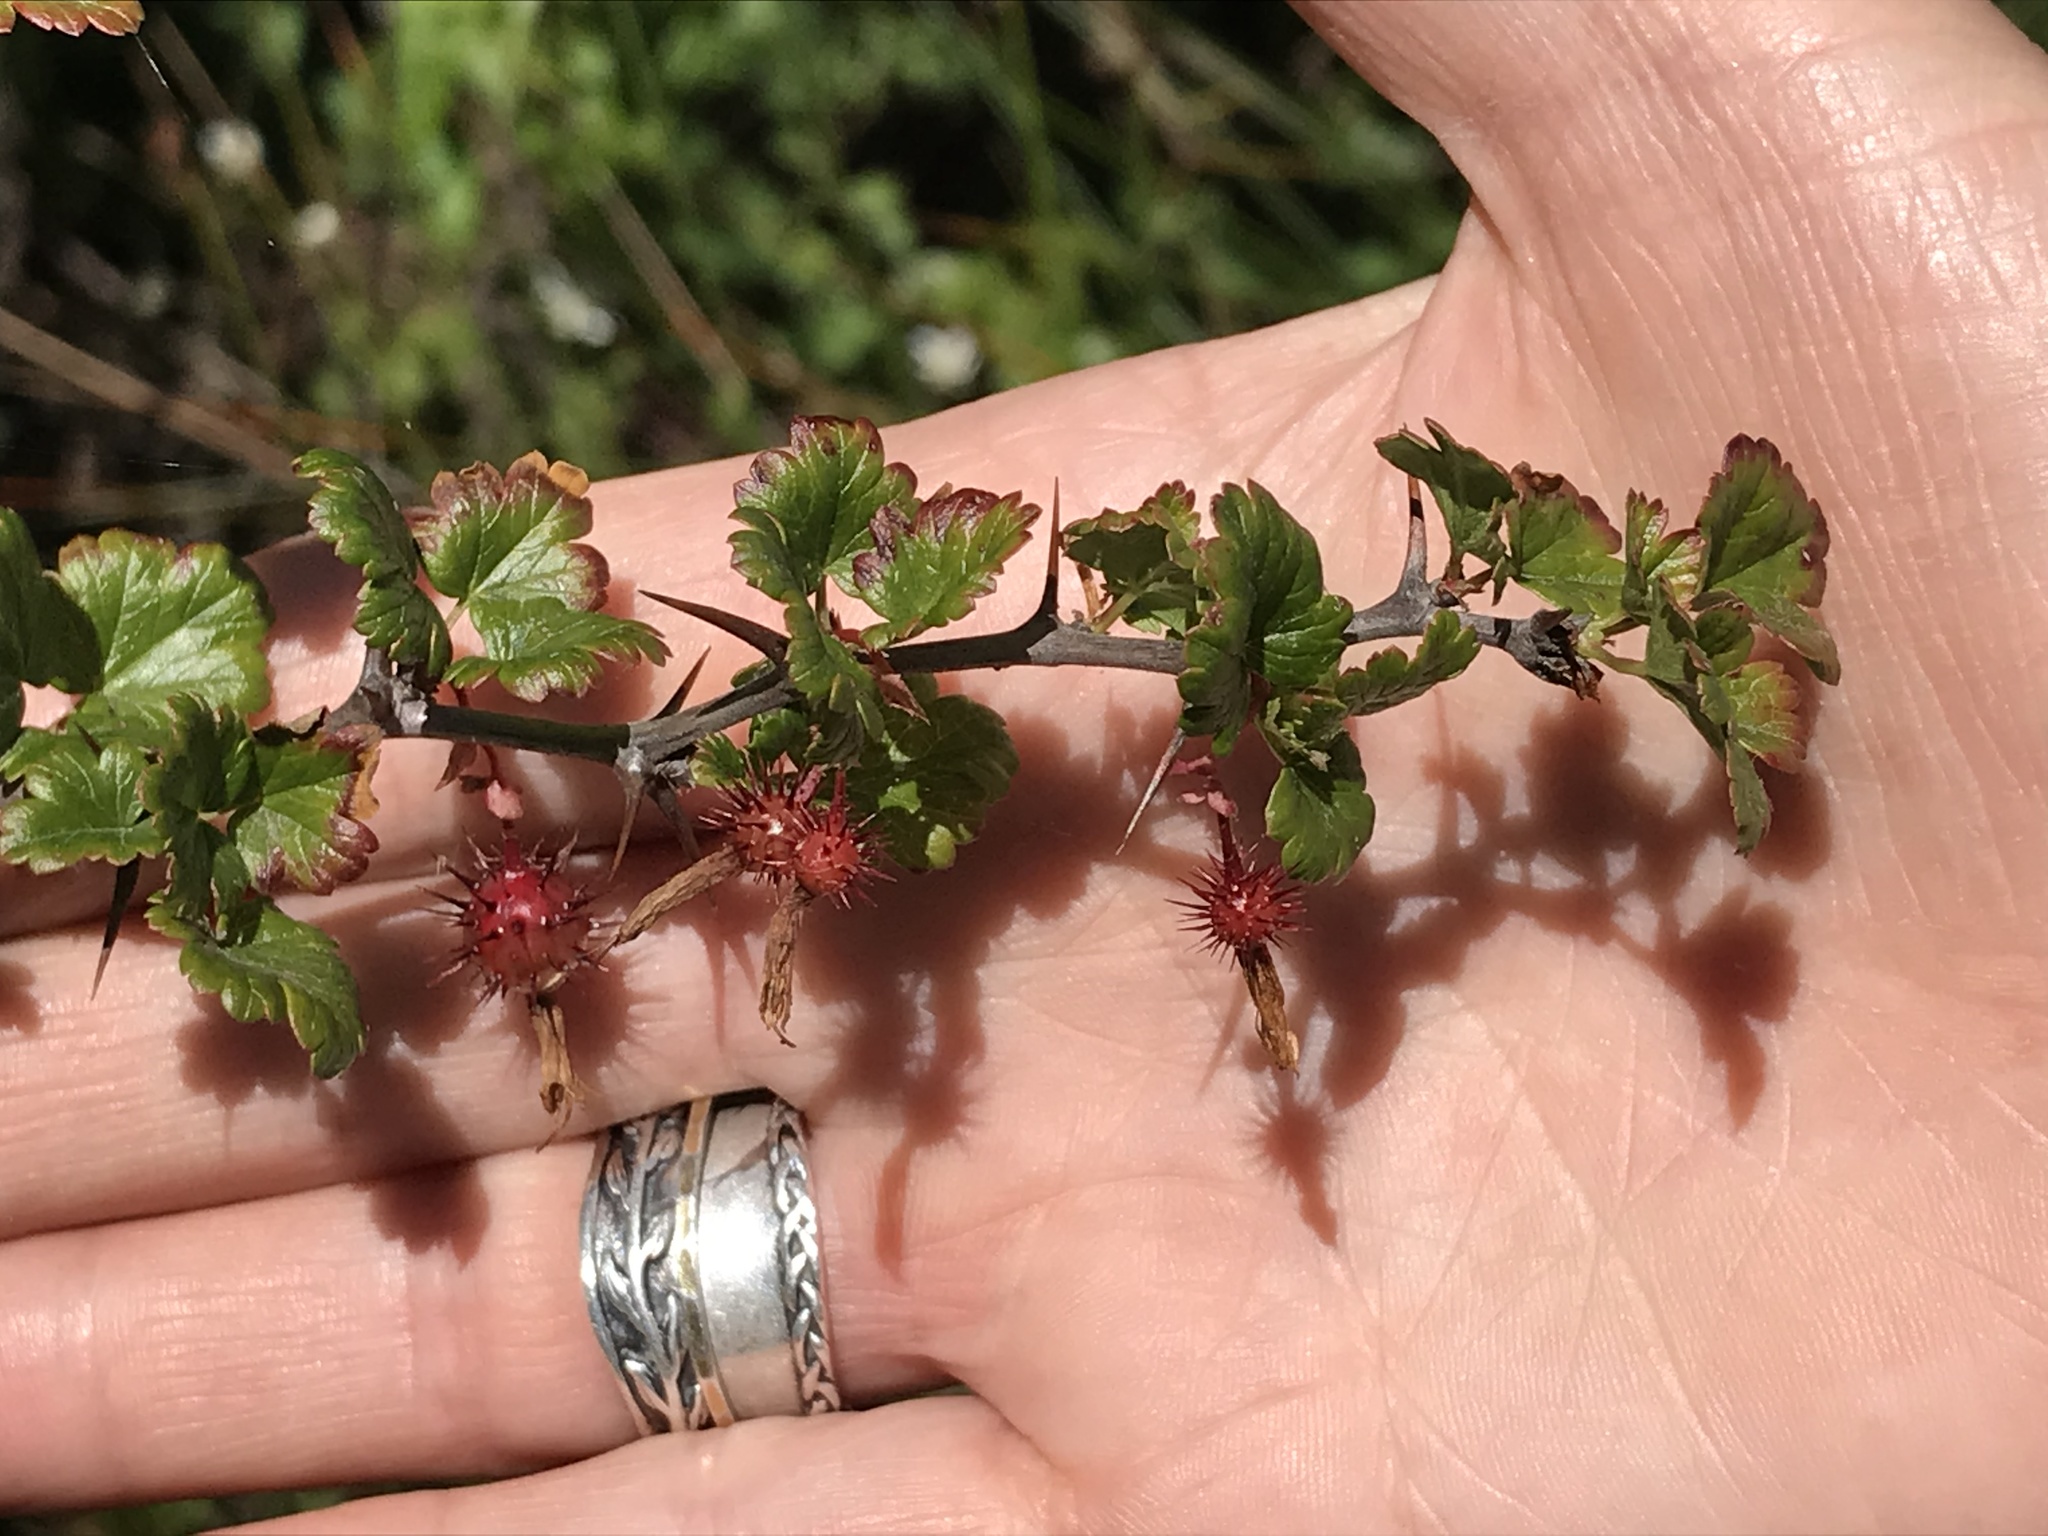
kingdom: Plantae
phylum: Tracheophyta
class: Magnoliopsida
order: Saxifragales
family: Grossulariaceae
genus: Ribes
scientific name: Ribes californicum
